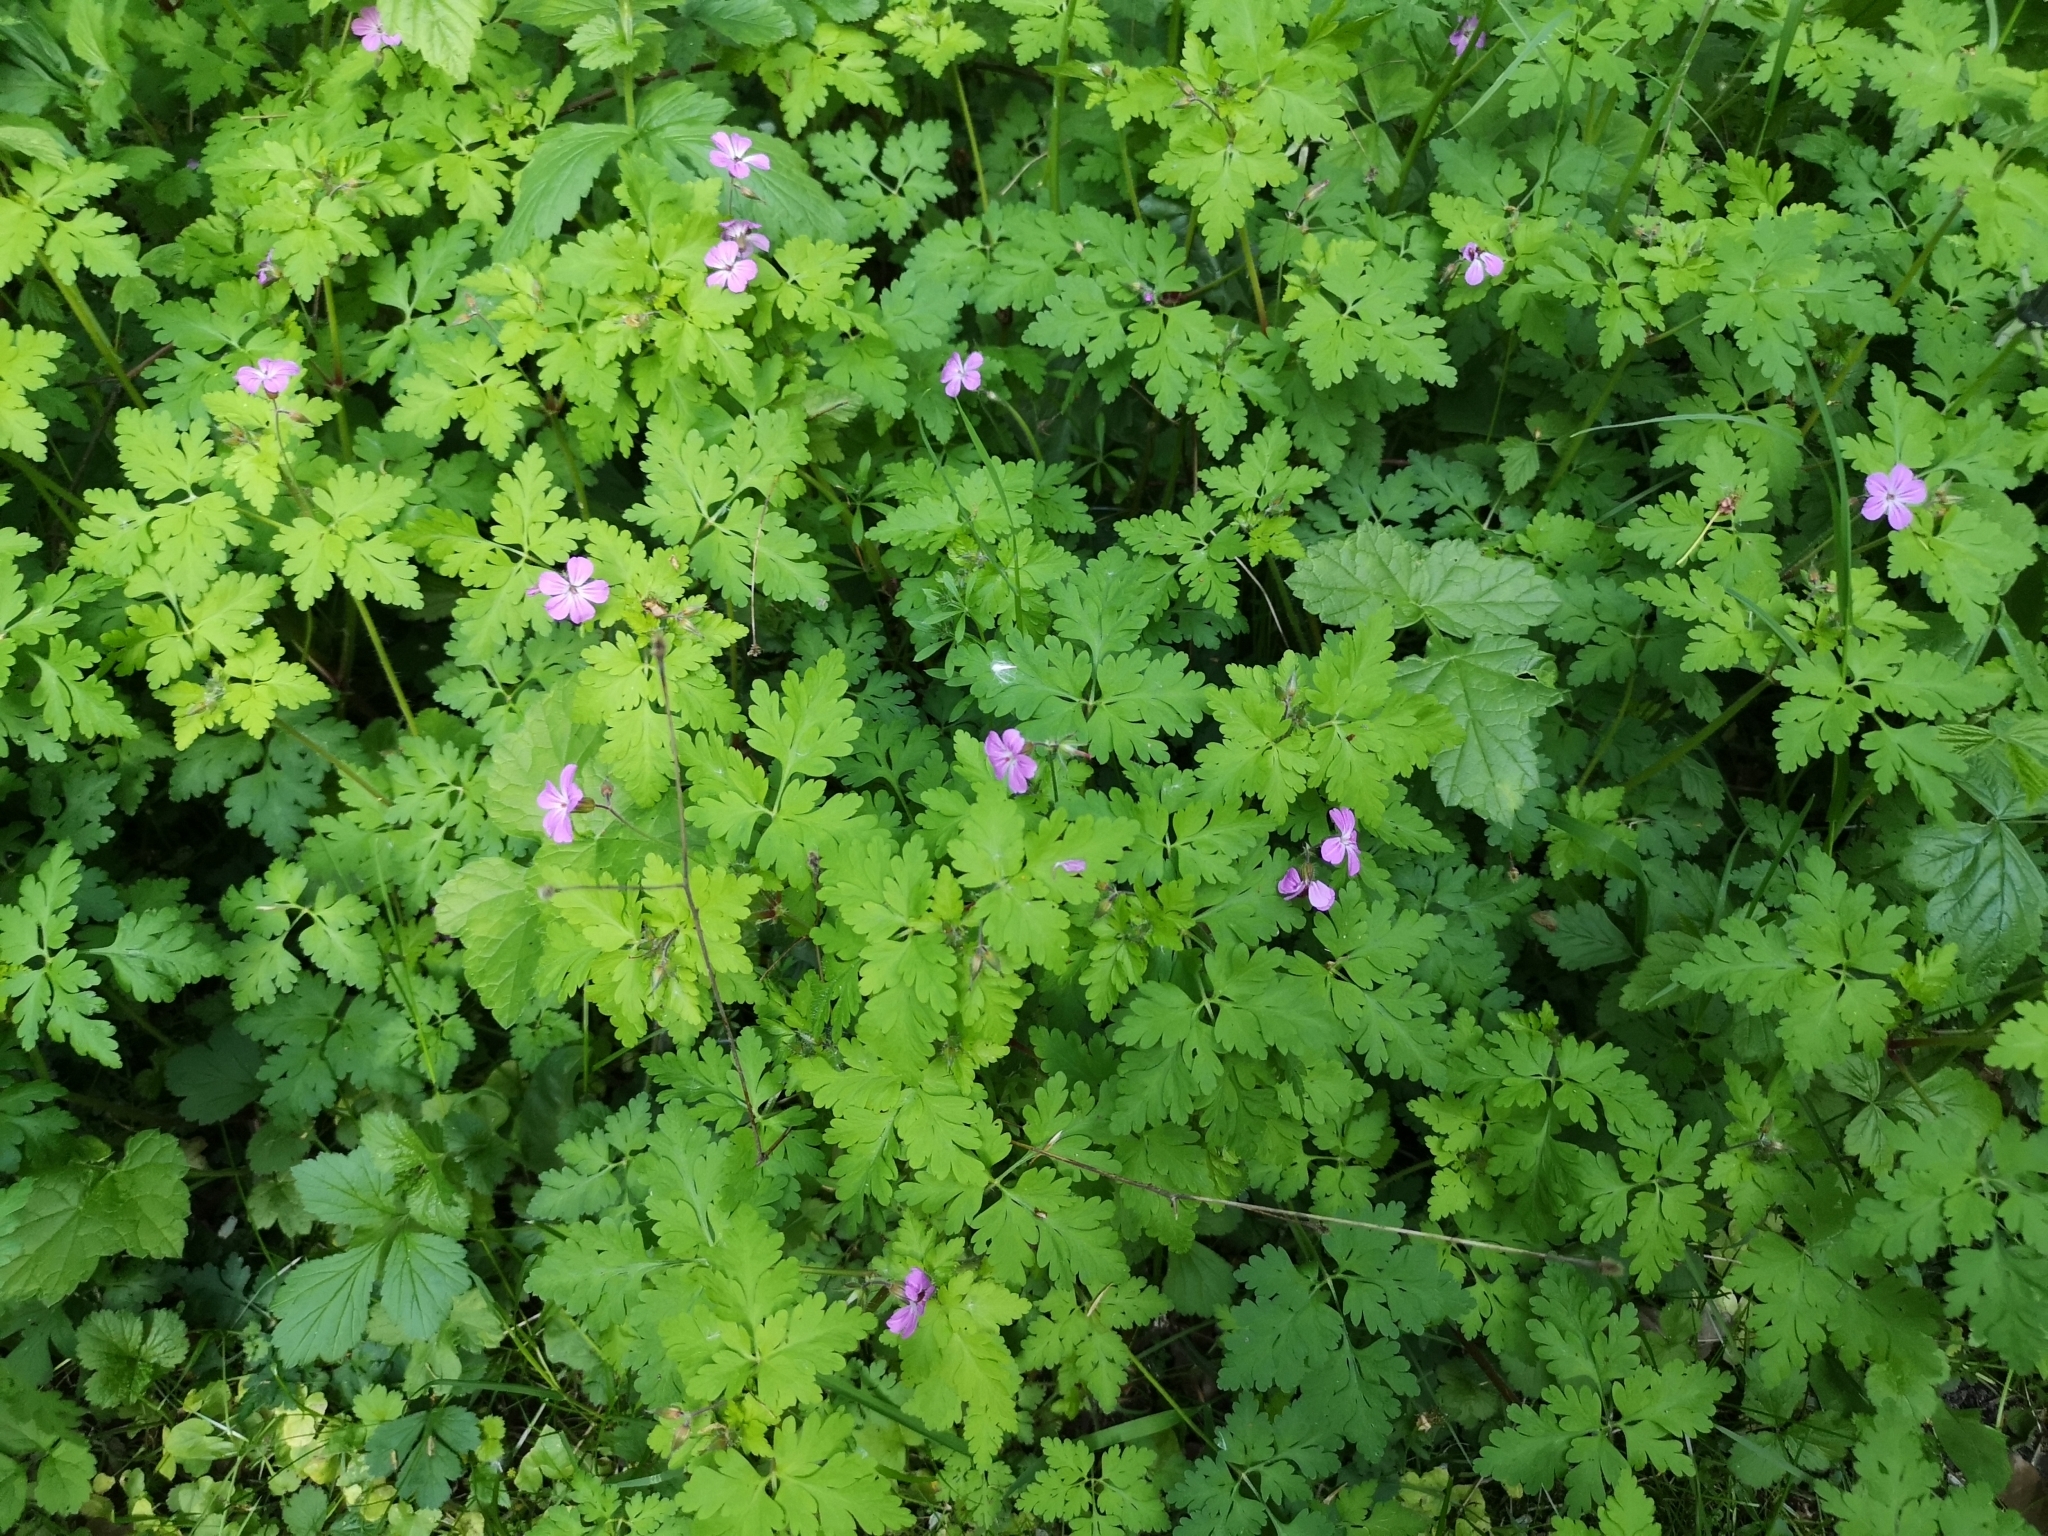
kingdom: Plantae
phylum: Tracheophyta
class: Magnoliopsida
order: Geraniales
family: Geraniaceae
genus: Geranium
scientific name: Geranium robertianum
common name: Herb-robert
